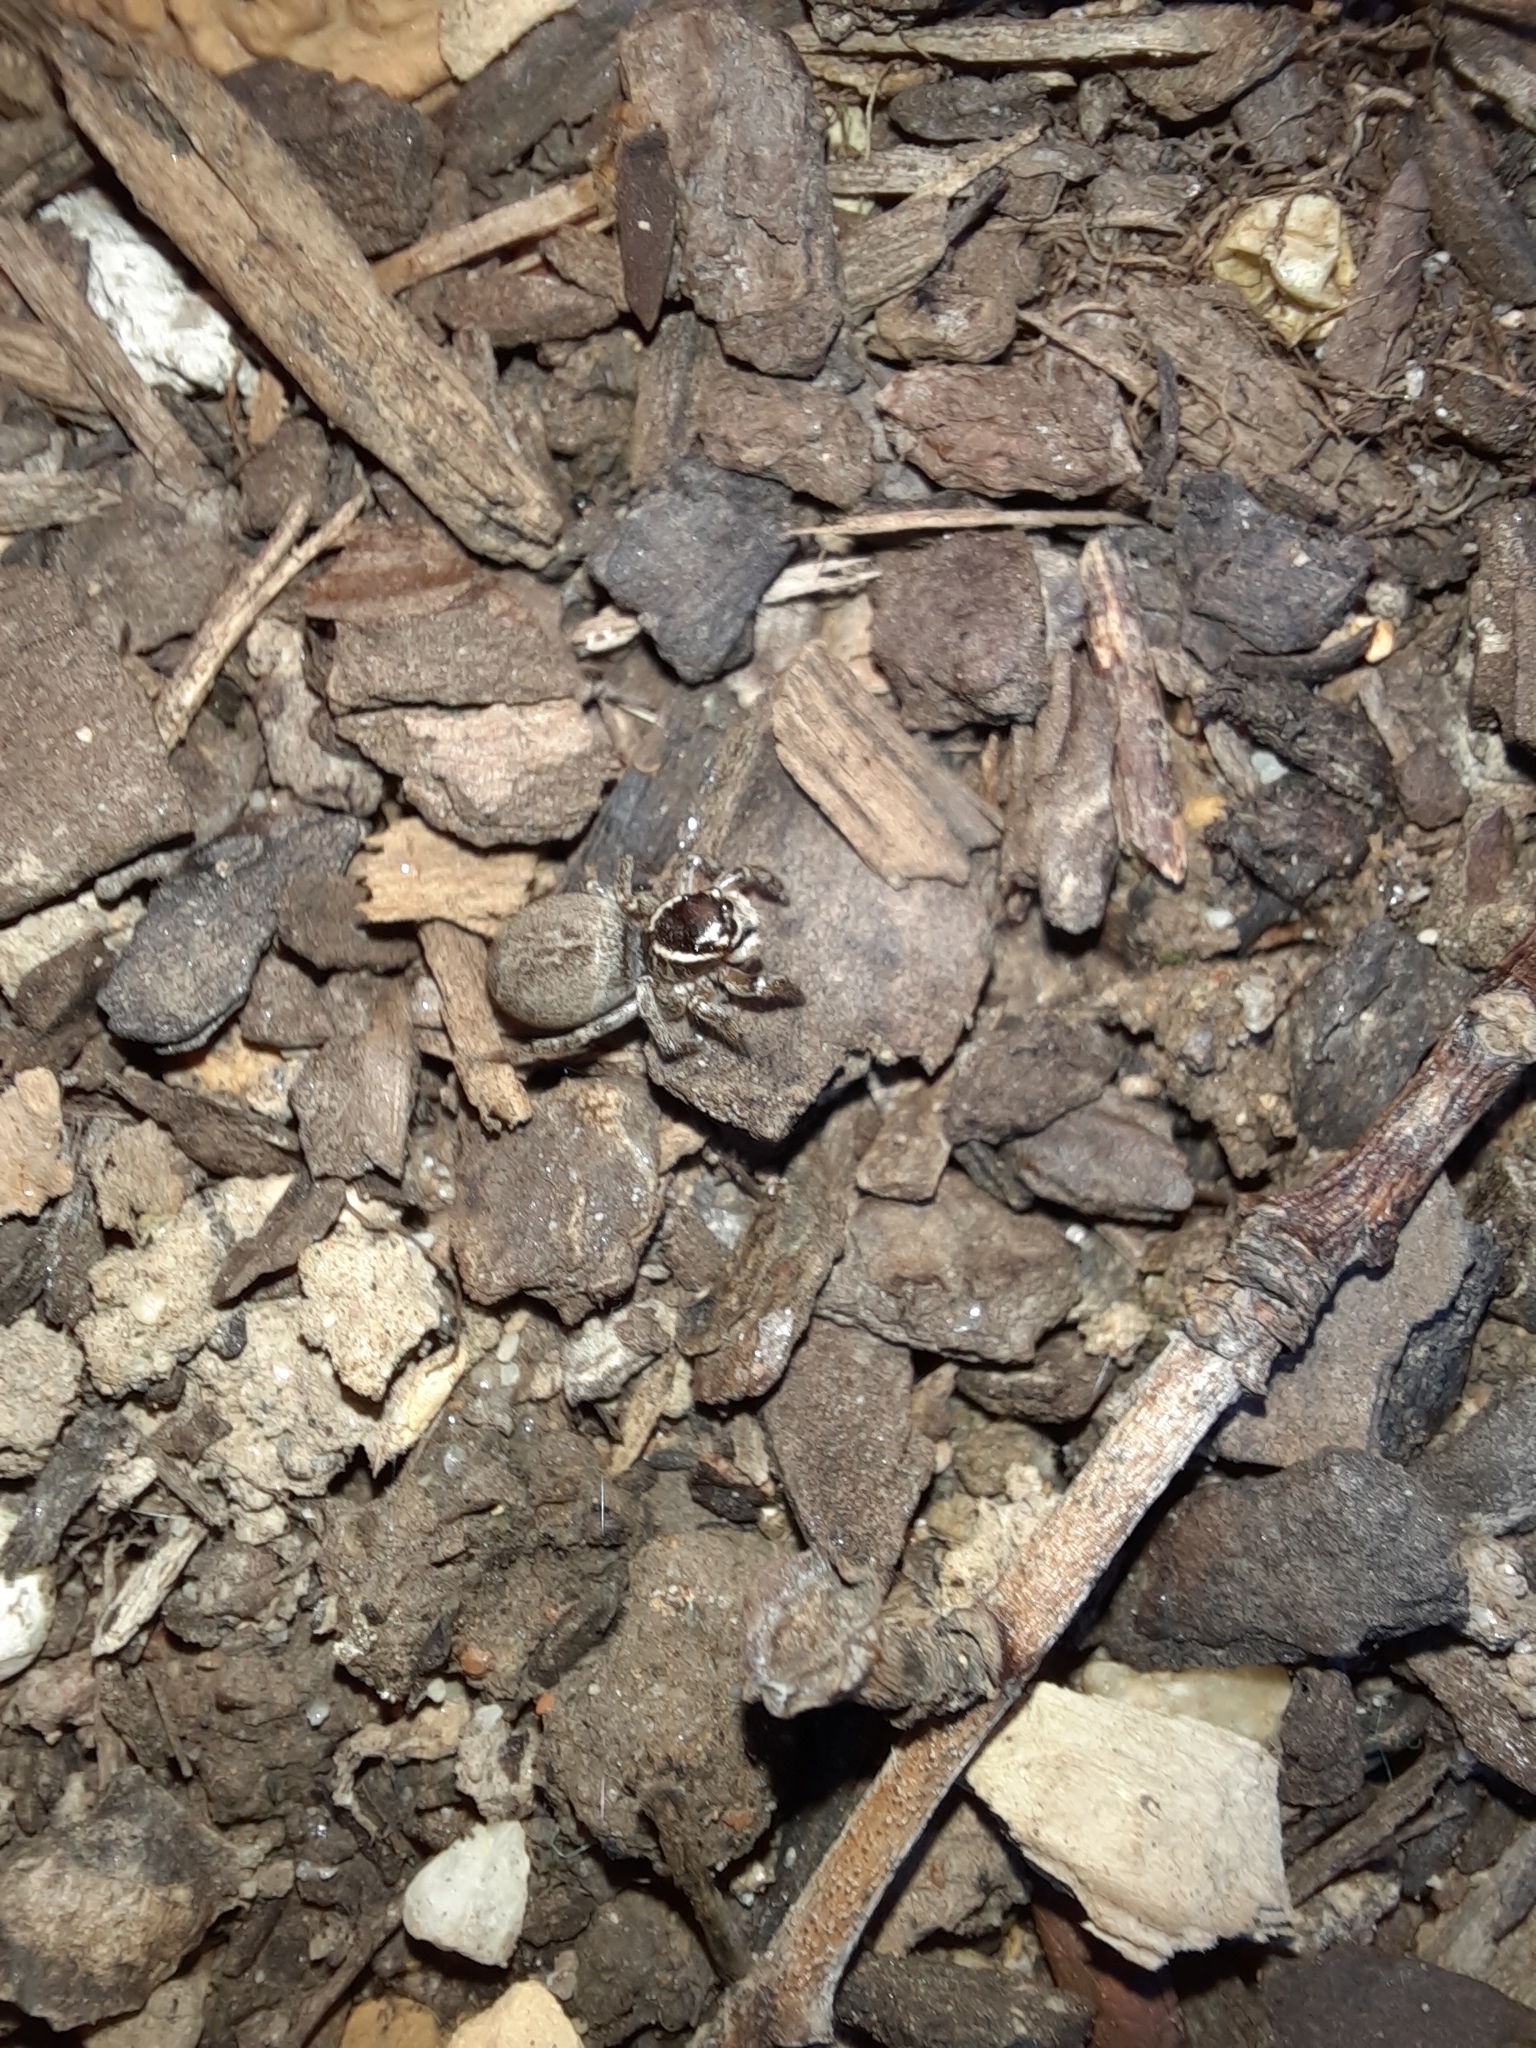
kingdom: Animalia
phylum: Arthropoda
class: Arachnida
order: Araneae
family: Salticidae
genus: Maratus
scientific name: Maratus griseus
